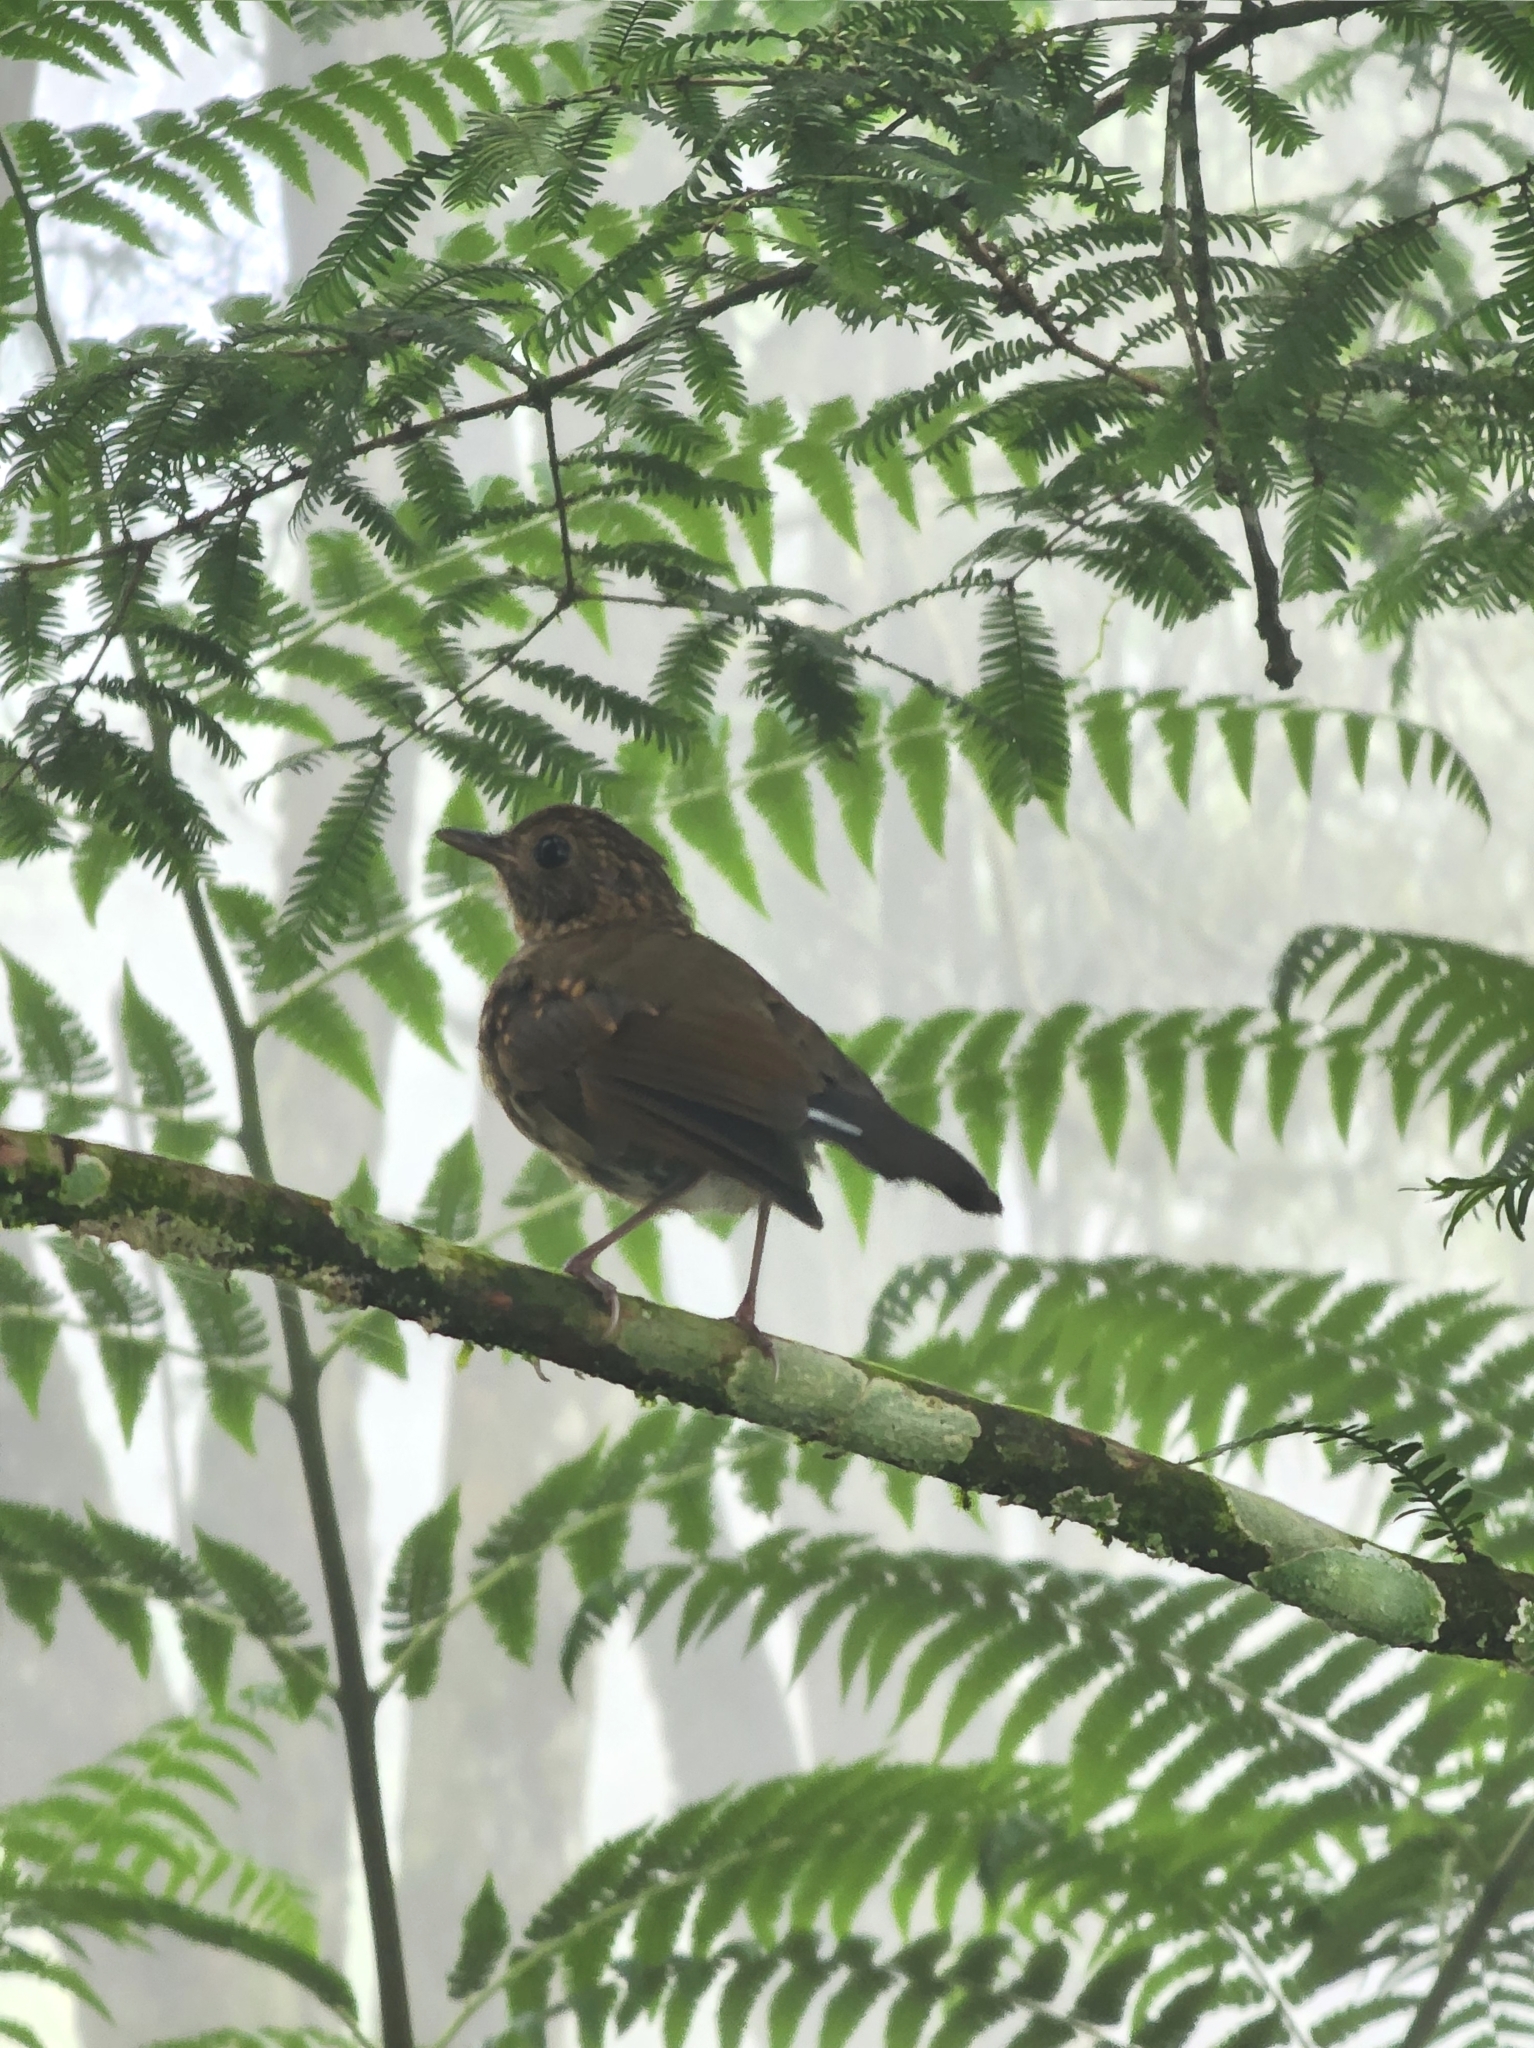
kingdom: Animalia
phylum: Chordata
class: Aves
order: Passeriformes
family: Muscicapidae
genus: Myiomela
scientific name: Myiomela leucura
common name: White-tailed robin
